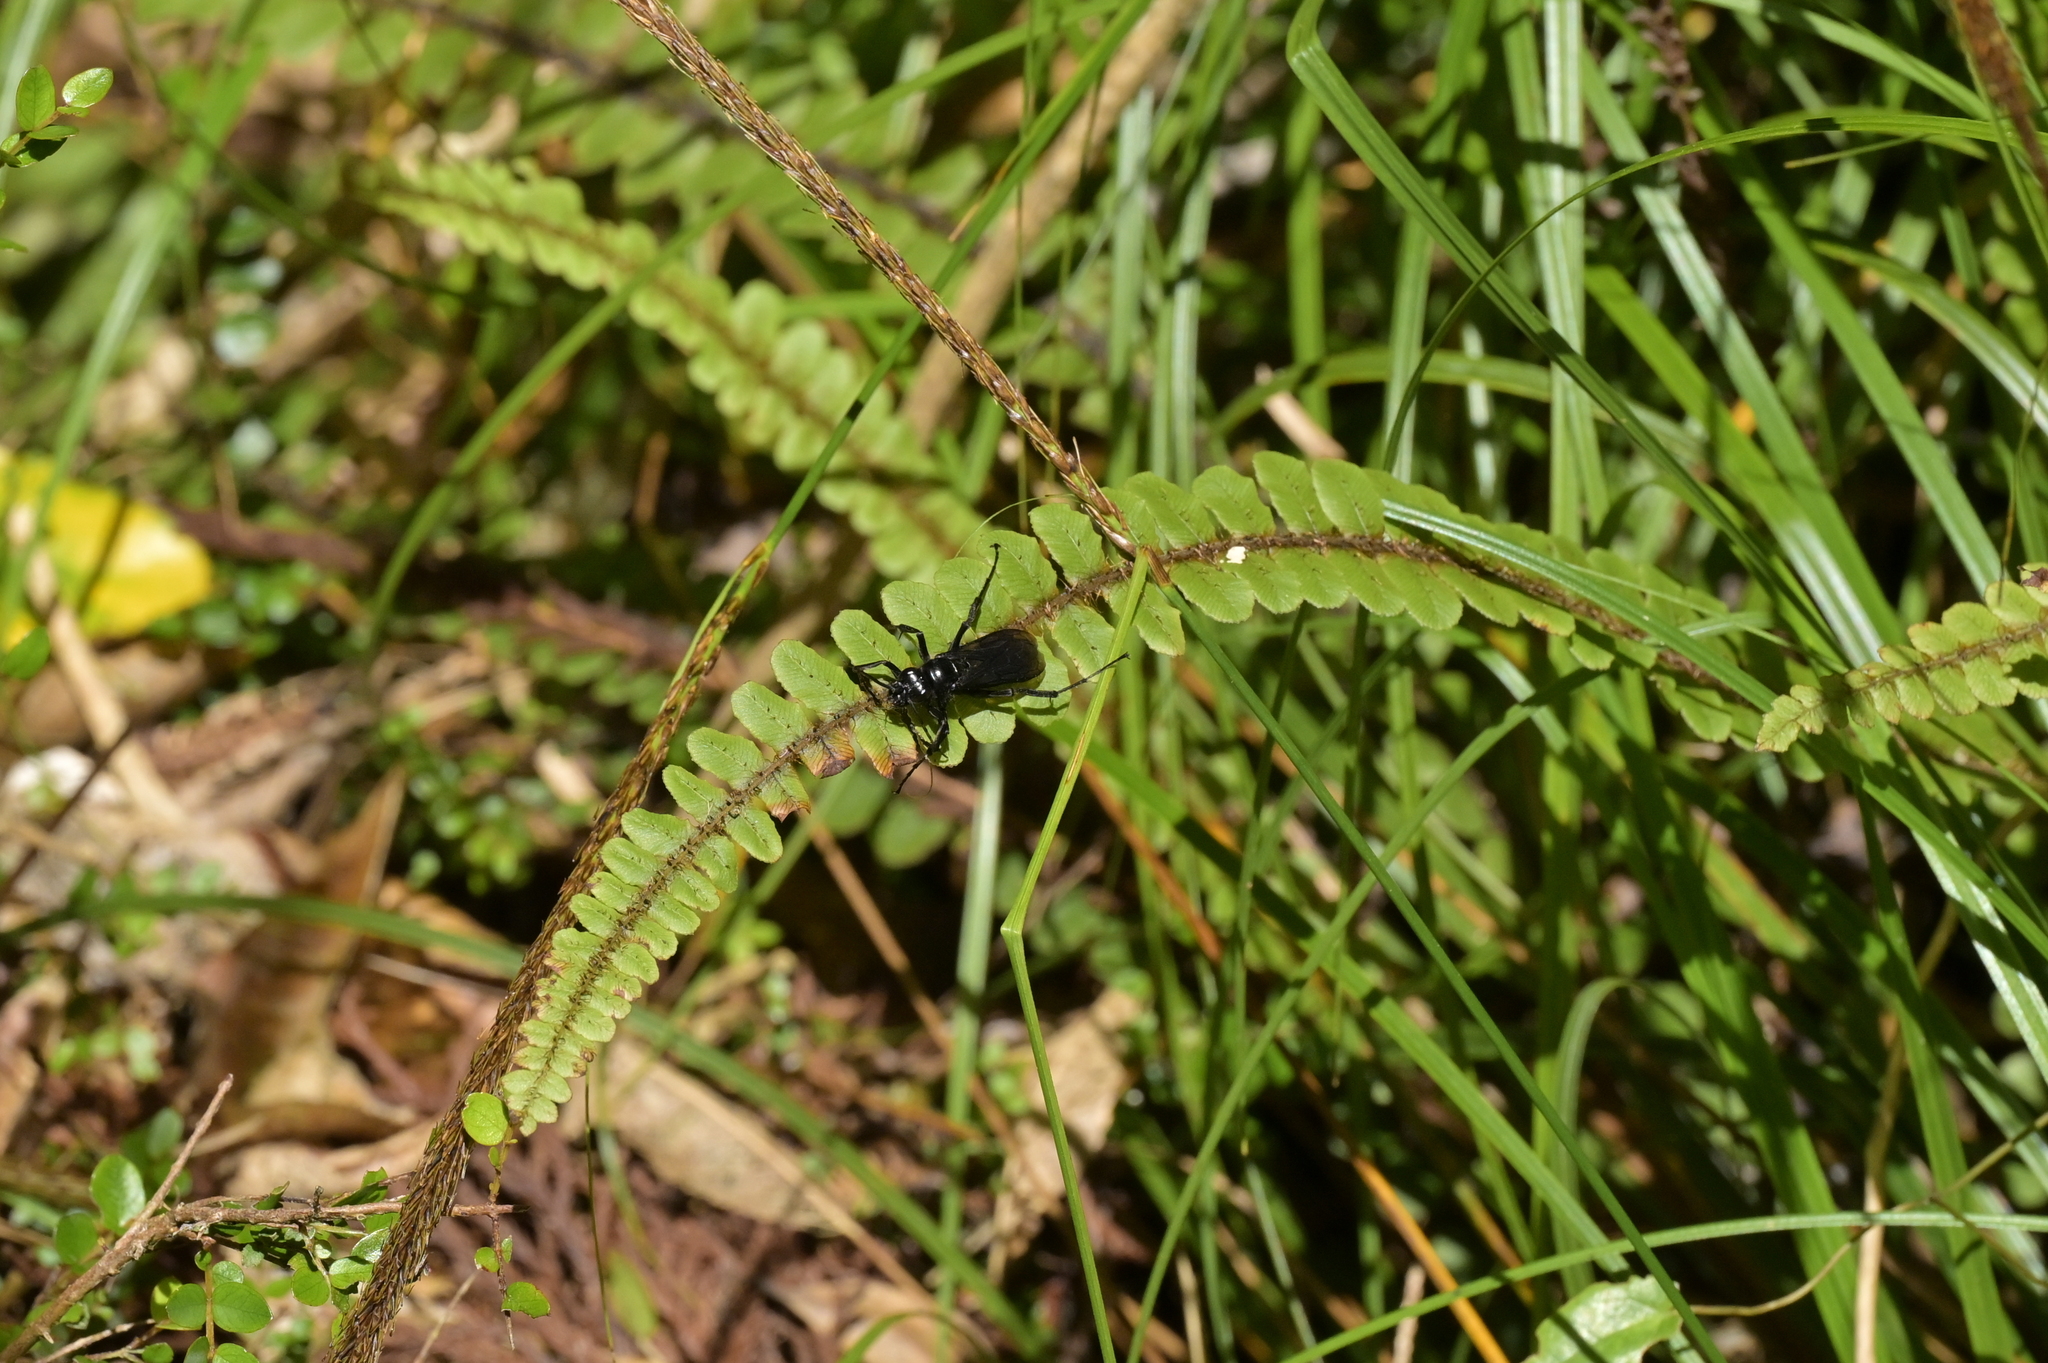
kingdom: Animalia
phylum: Arthropoda
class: Insecta
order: Hymenoptera
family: Pompilidae
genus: Priocnemis
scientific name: Priocnemis monachus
